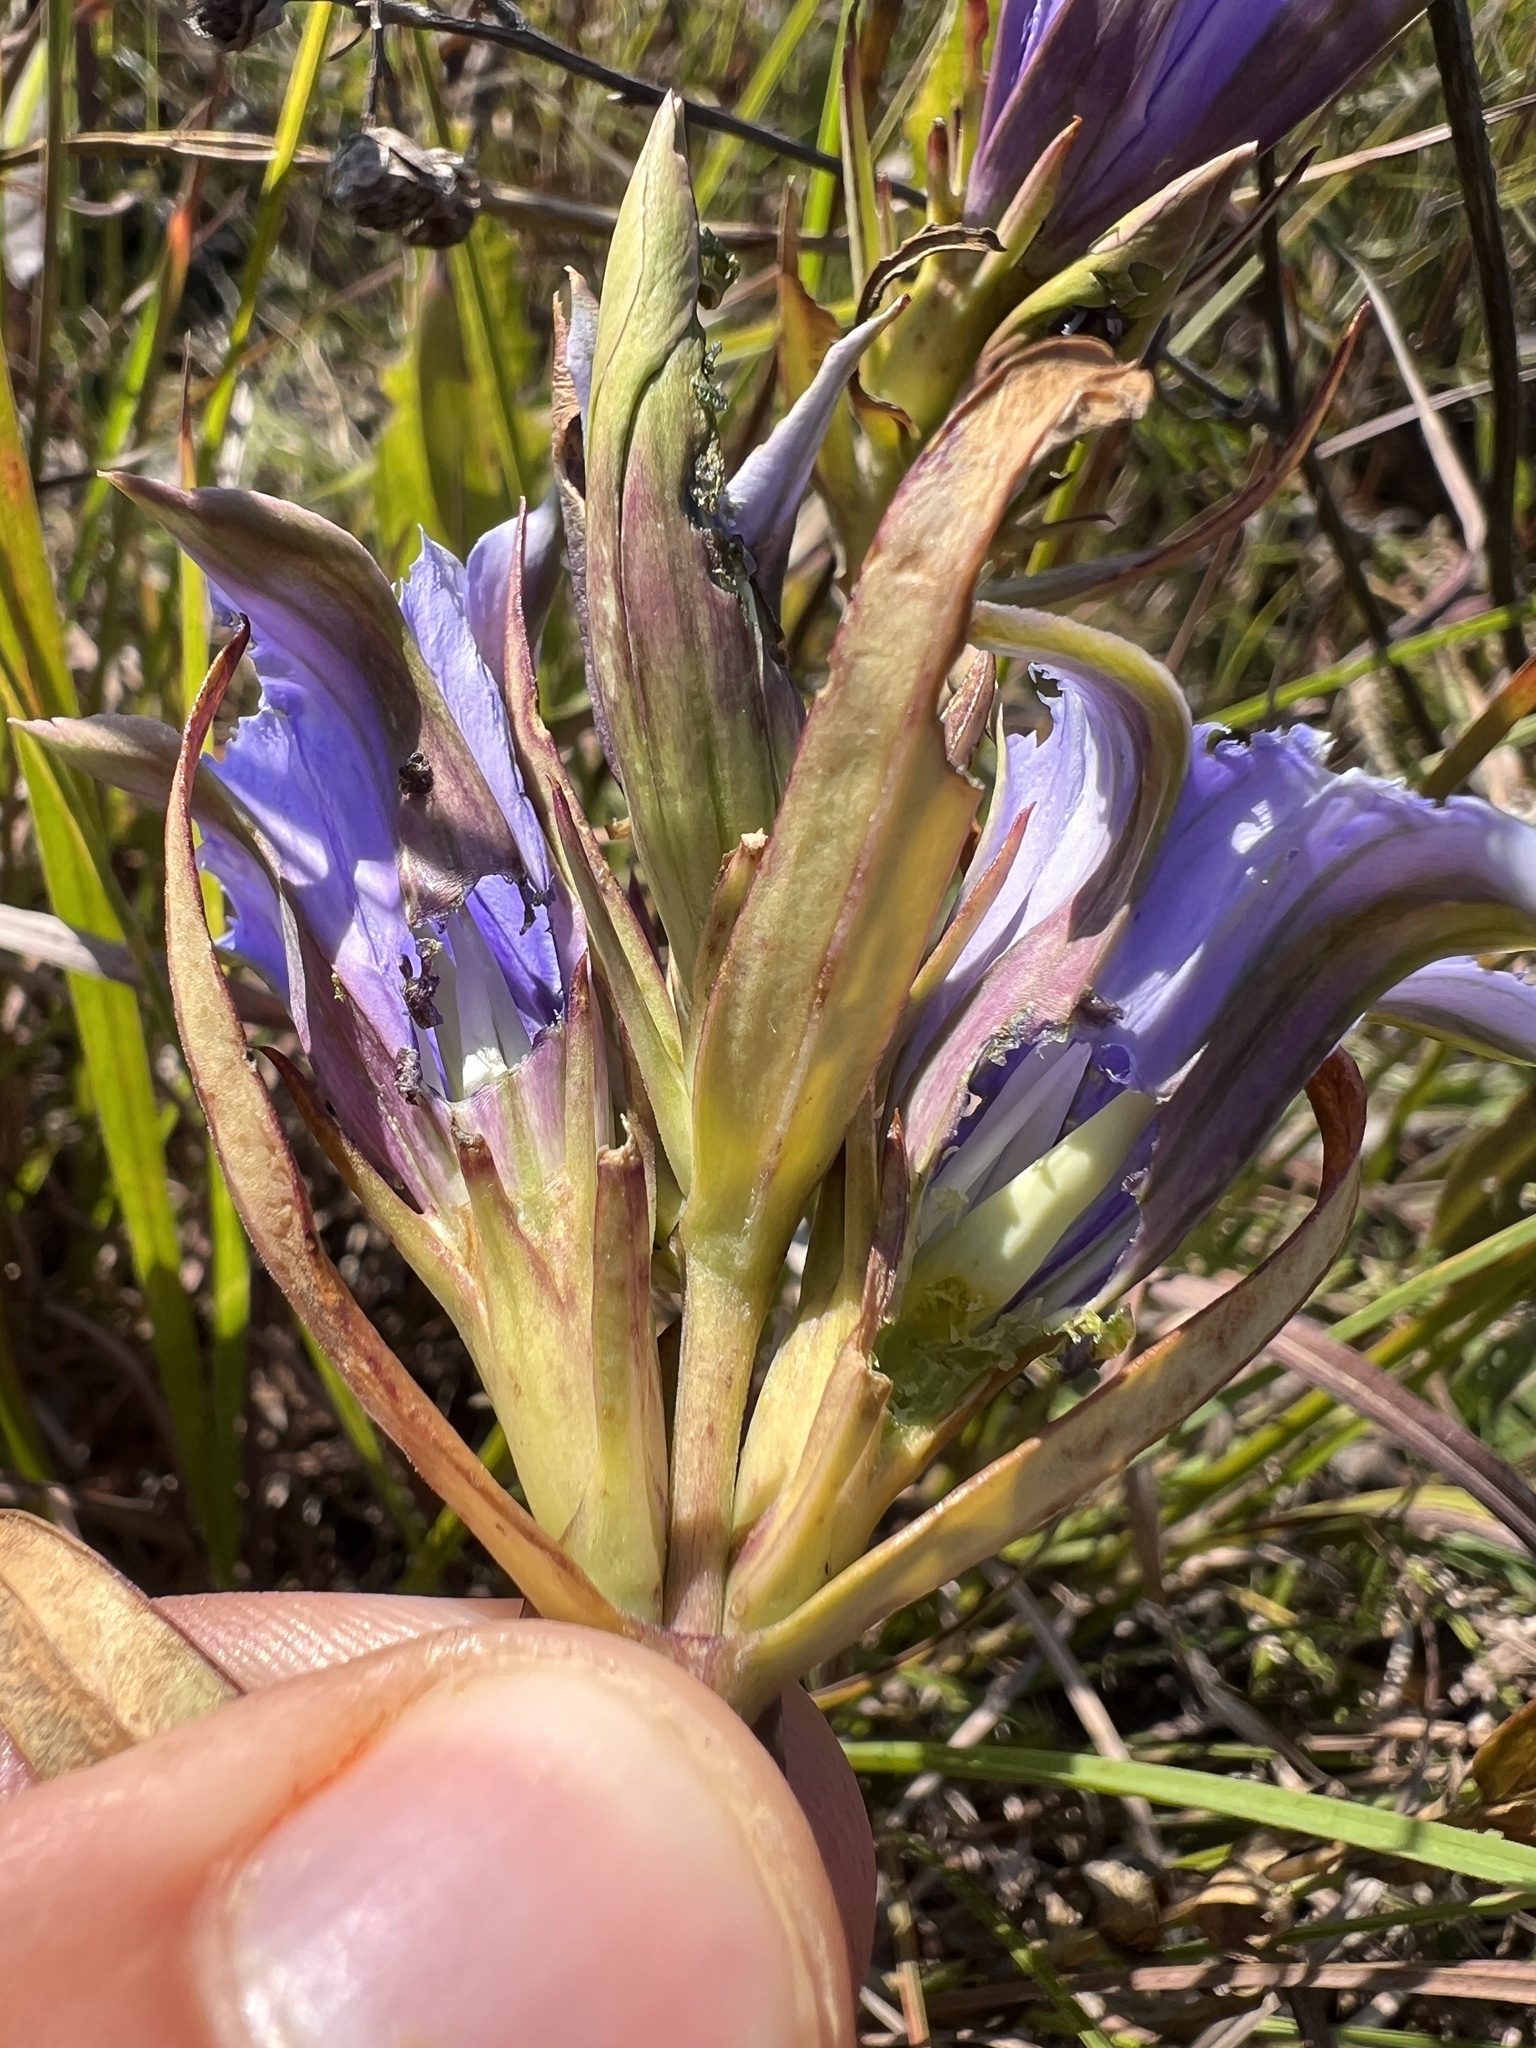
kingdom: Plantae
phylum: Tracheophyta
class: Magnoliopsida
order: Gentianales
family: Gentianaceae
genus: Gentiana
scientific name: Gentiana puberulenta
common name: Downy gentian
